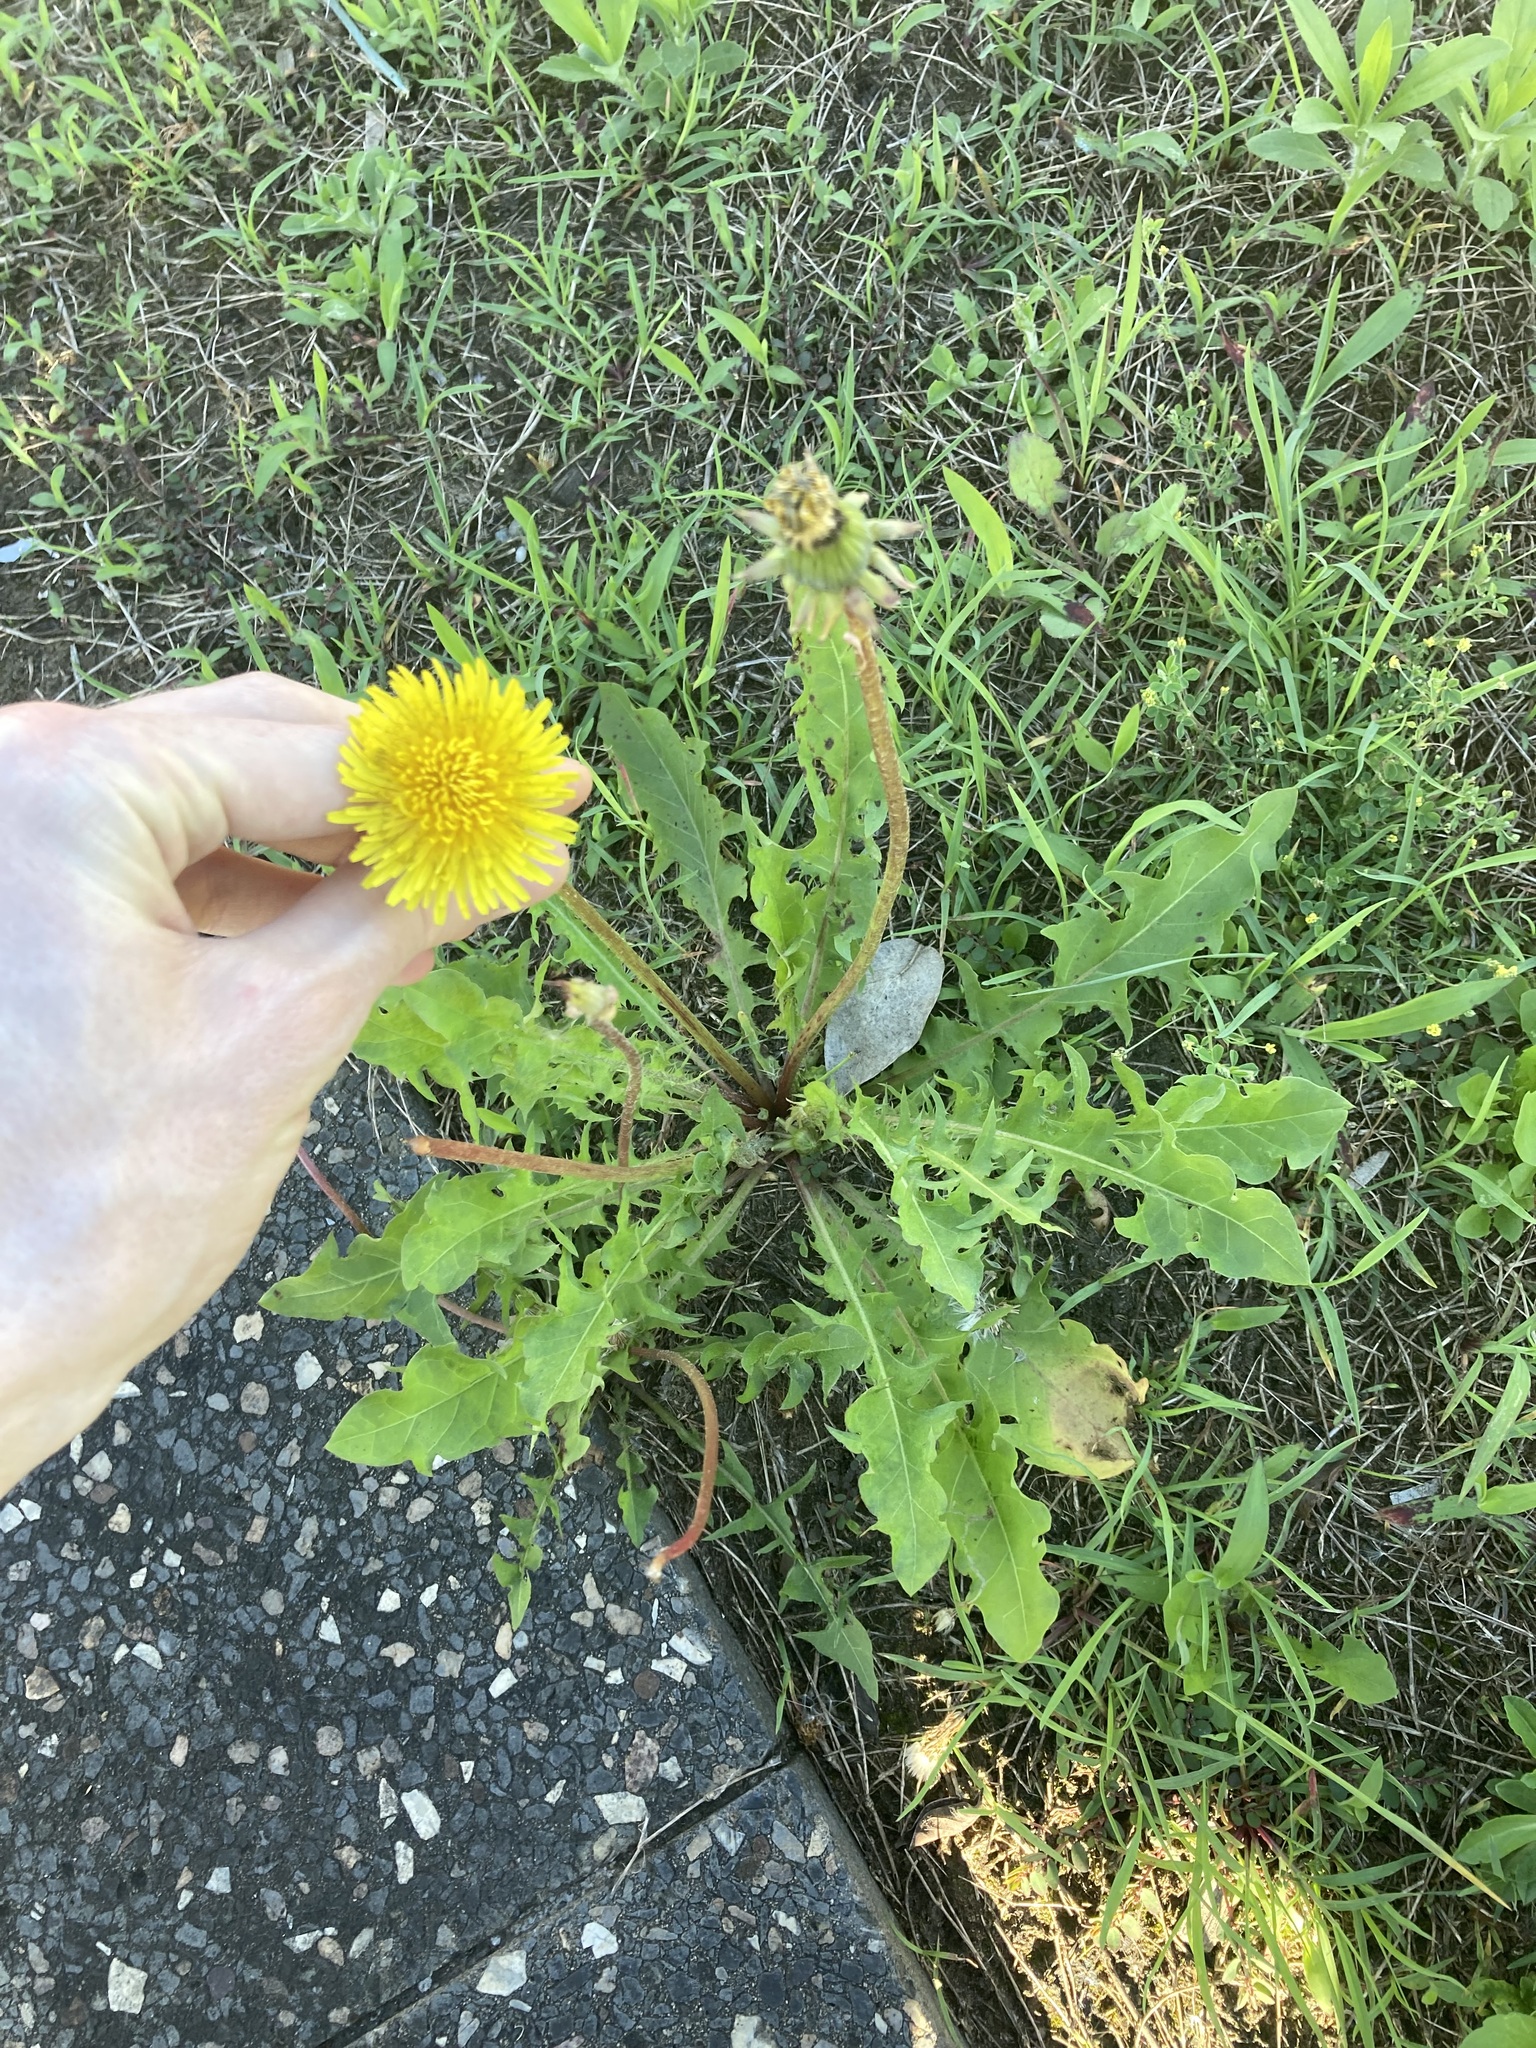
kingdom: Plantae
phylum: Tracheophyta
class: Magnoliopsida
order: Asterales
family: Asteraceae
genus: Taraxacum
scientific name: Taraxacum officinale
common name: Common dandelion
